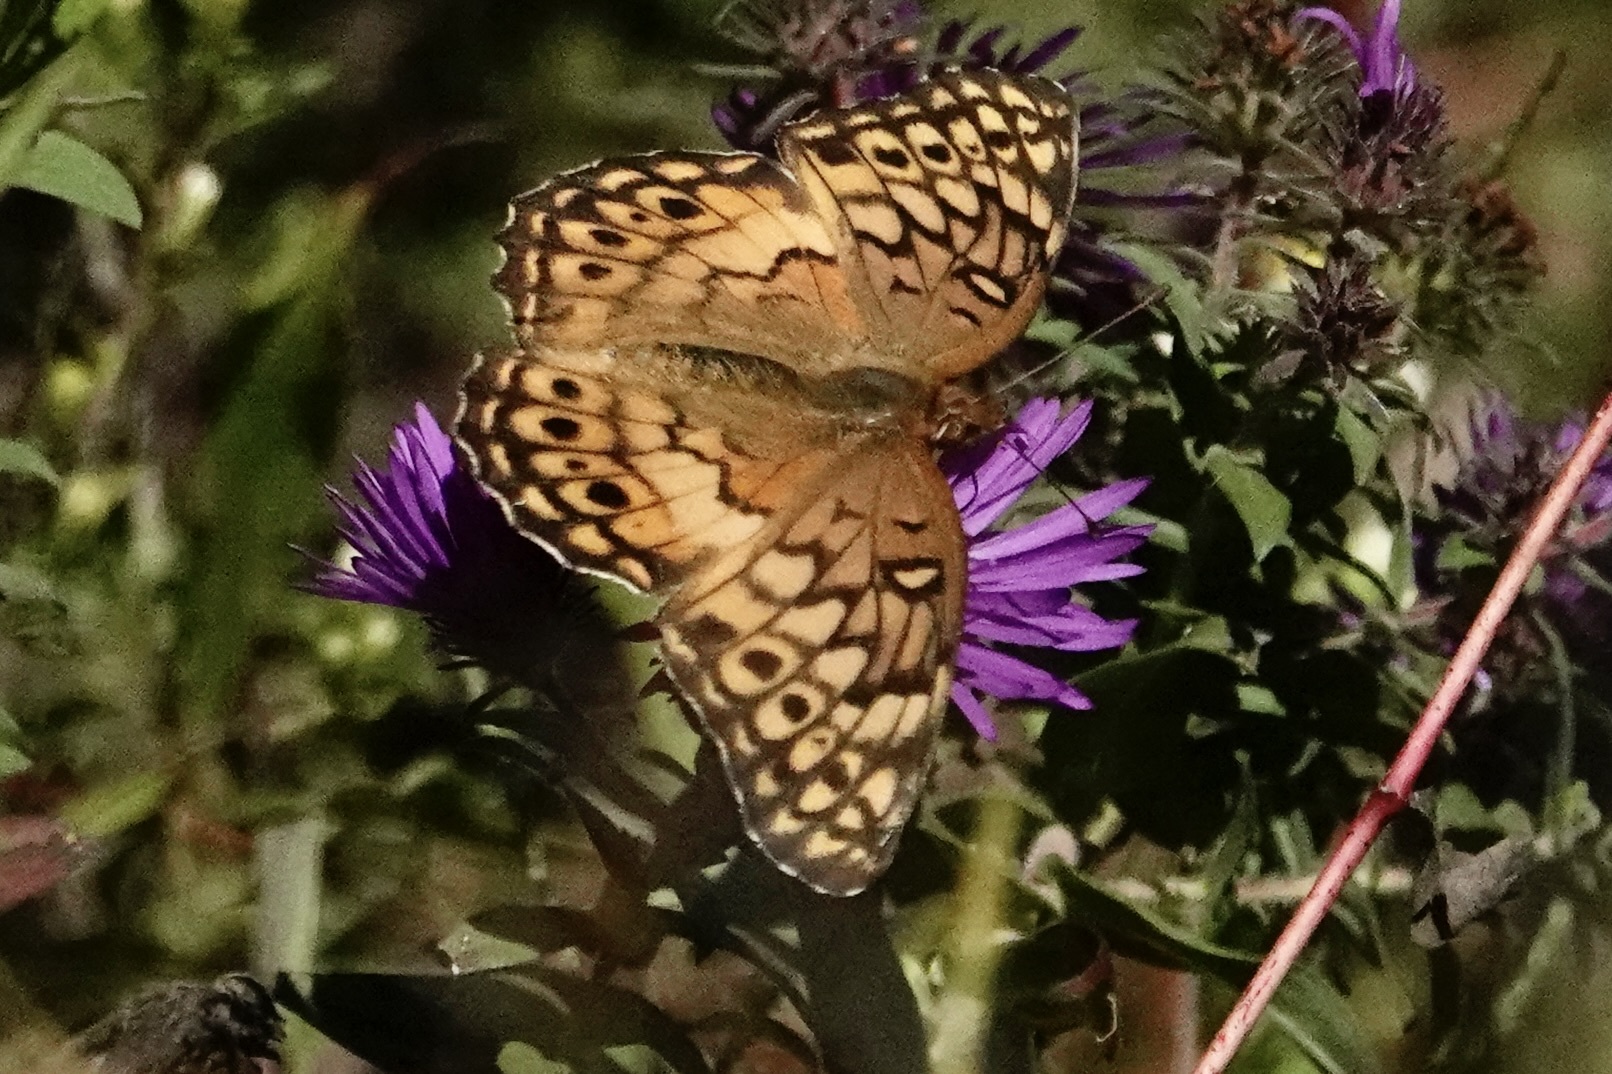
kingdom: Animalia
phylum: Arthropoda
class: Insecta
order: Lepidoptera
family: Nymphalidae
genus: Euptoieta
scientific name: Euptoieta claudia
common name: Variegated fritillary
